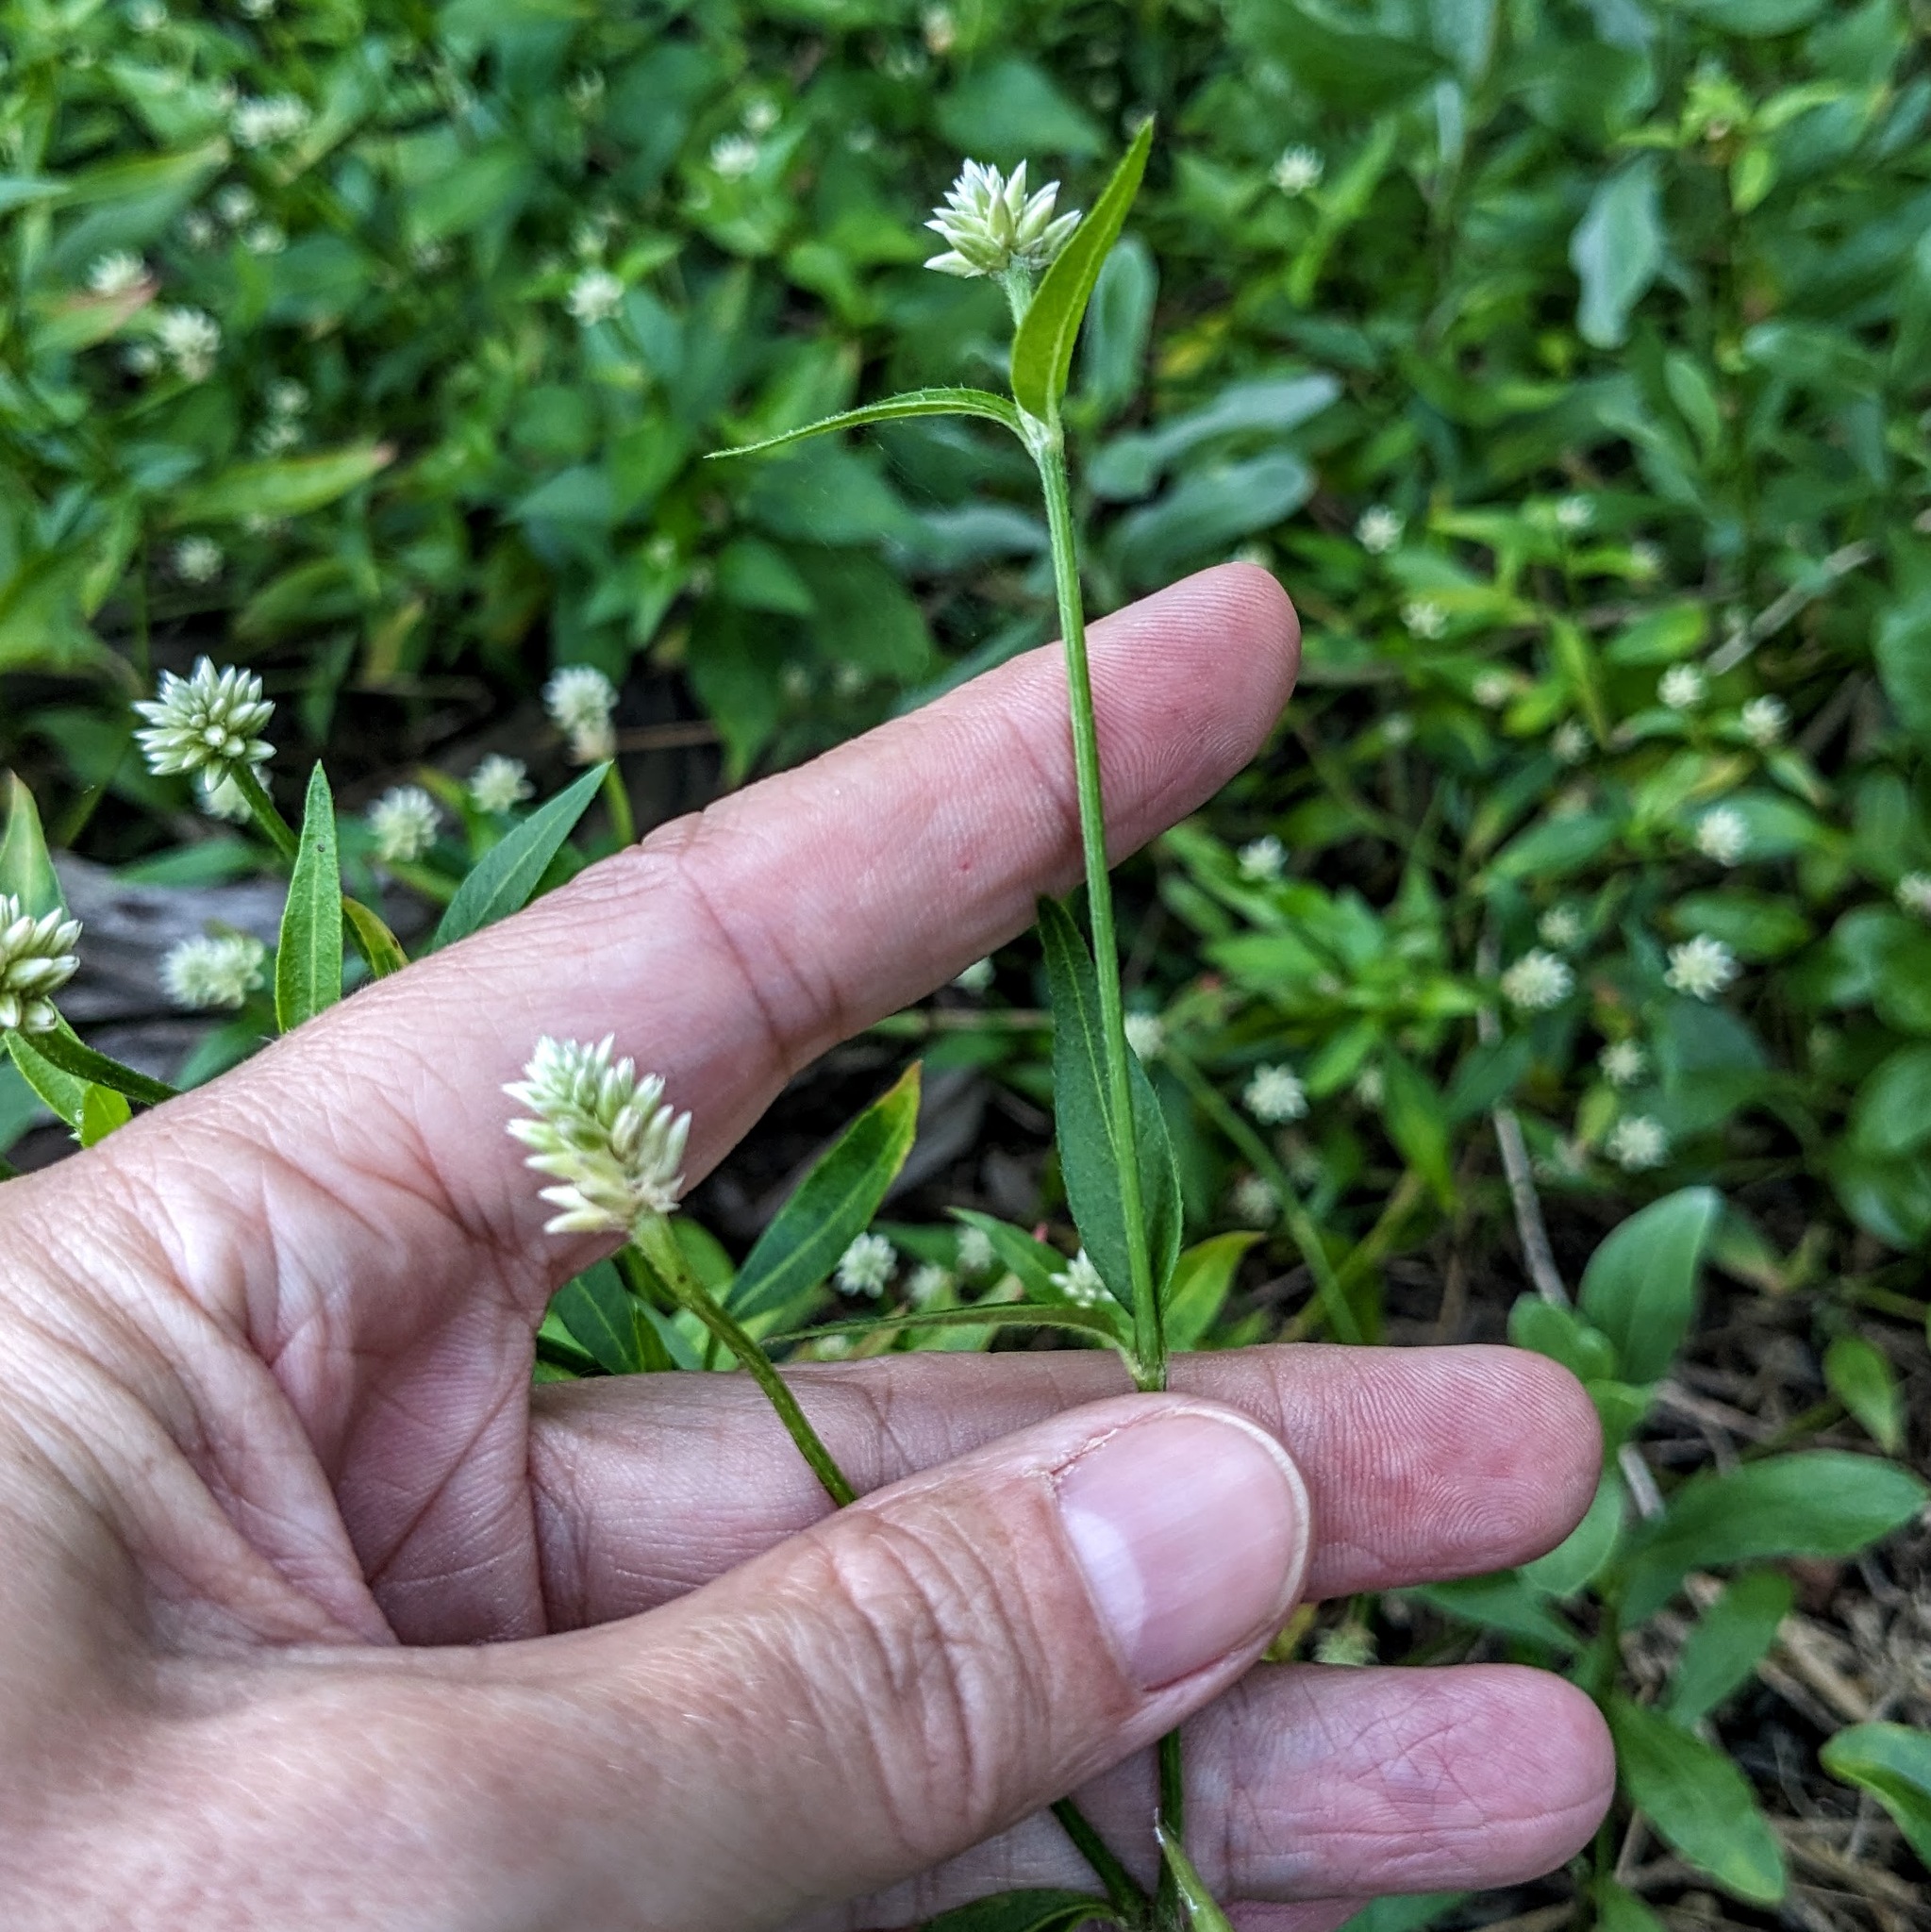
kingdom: Plantae
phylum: Tracheophyta
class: Magnoliopsida
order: Caryophyllales
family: Amaranthaceae
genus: Alternanthera
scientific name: Alternanthera flavescens
